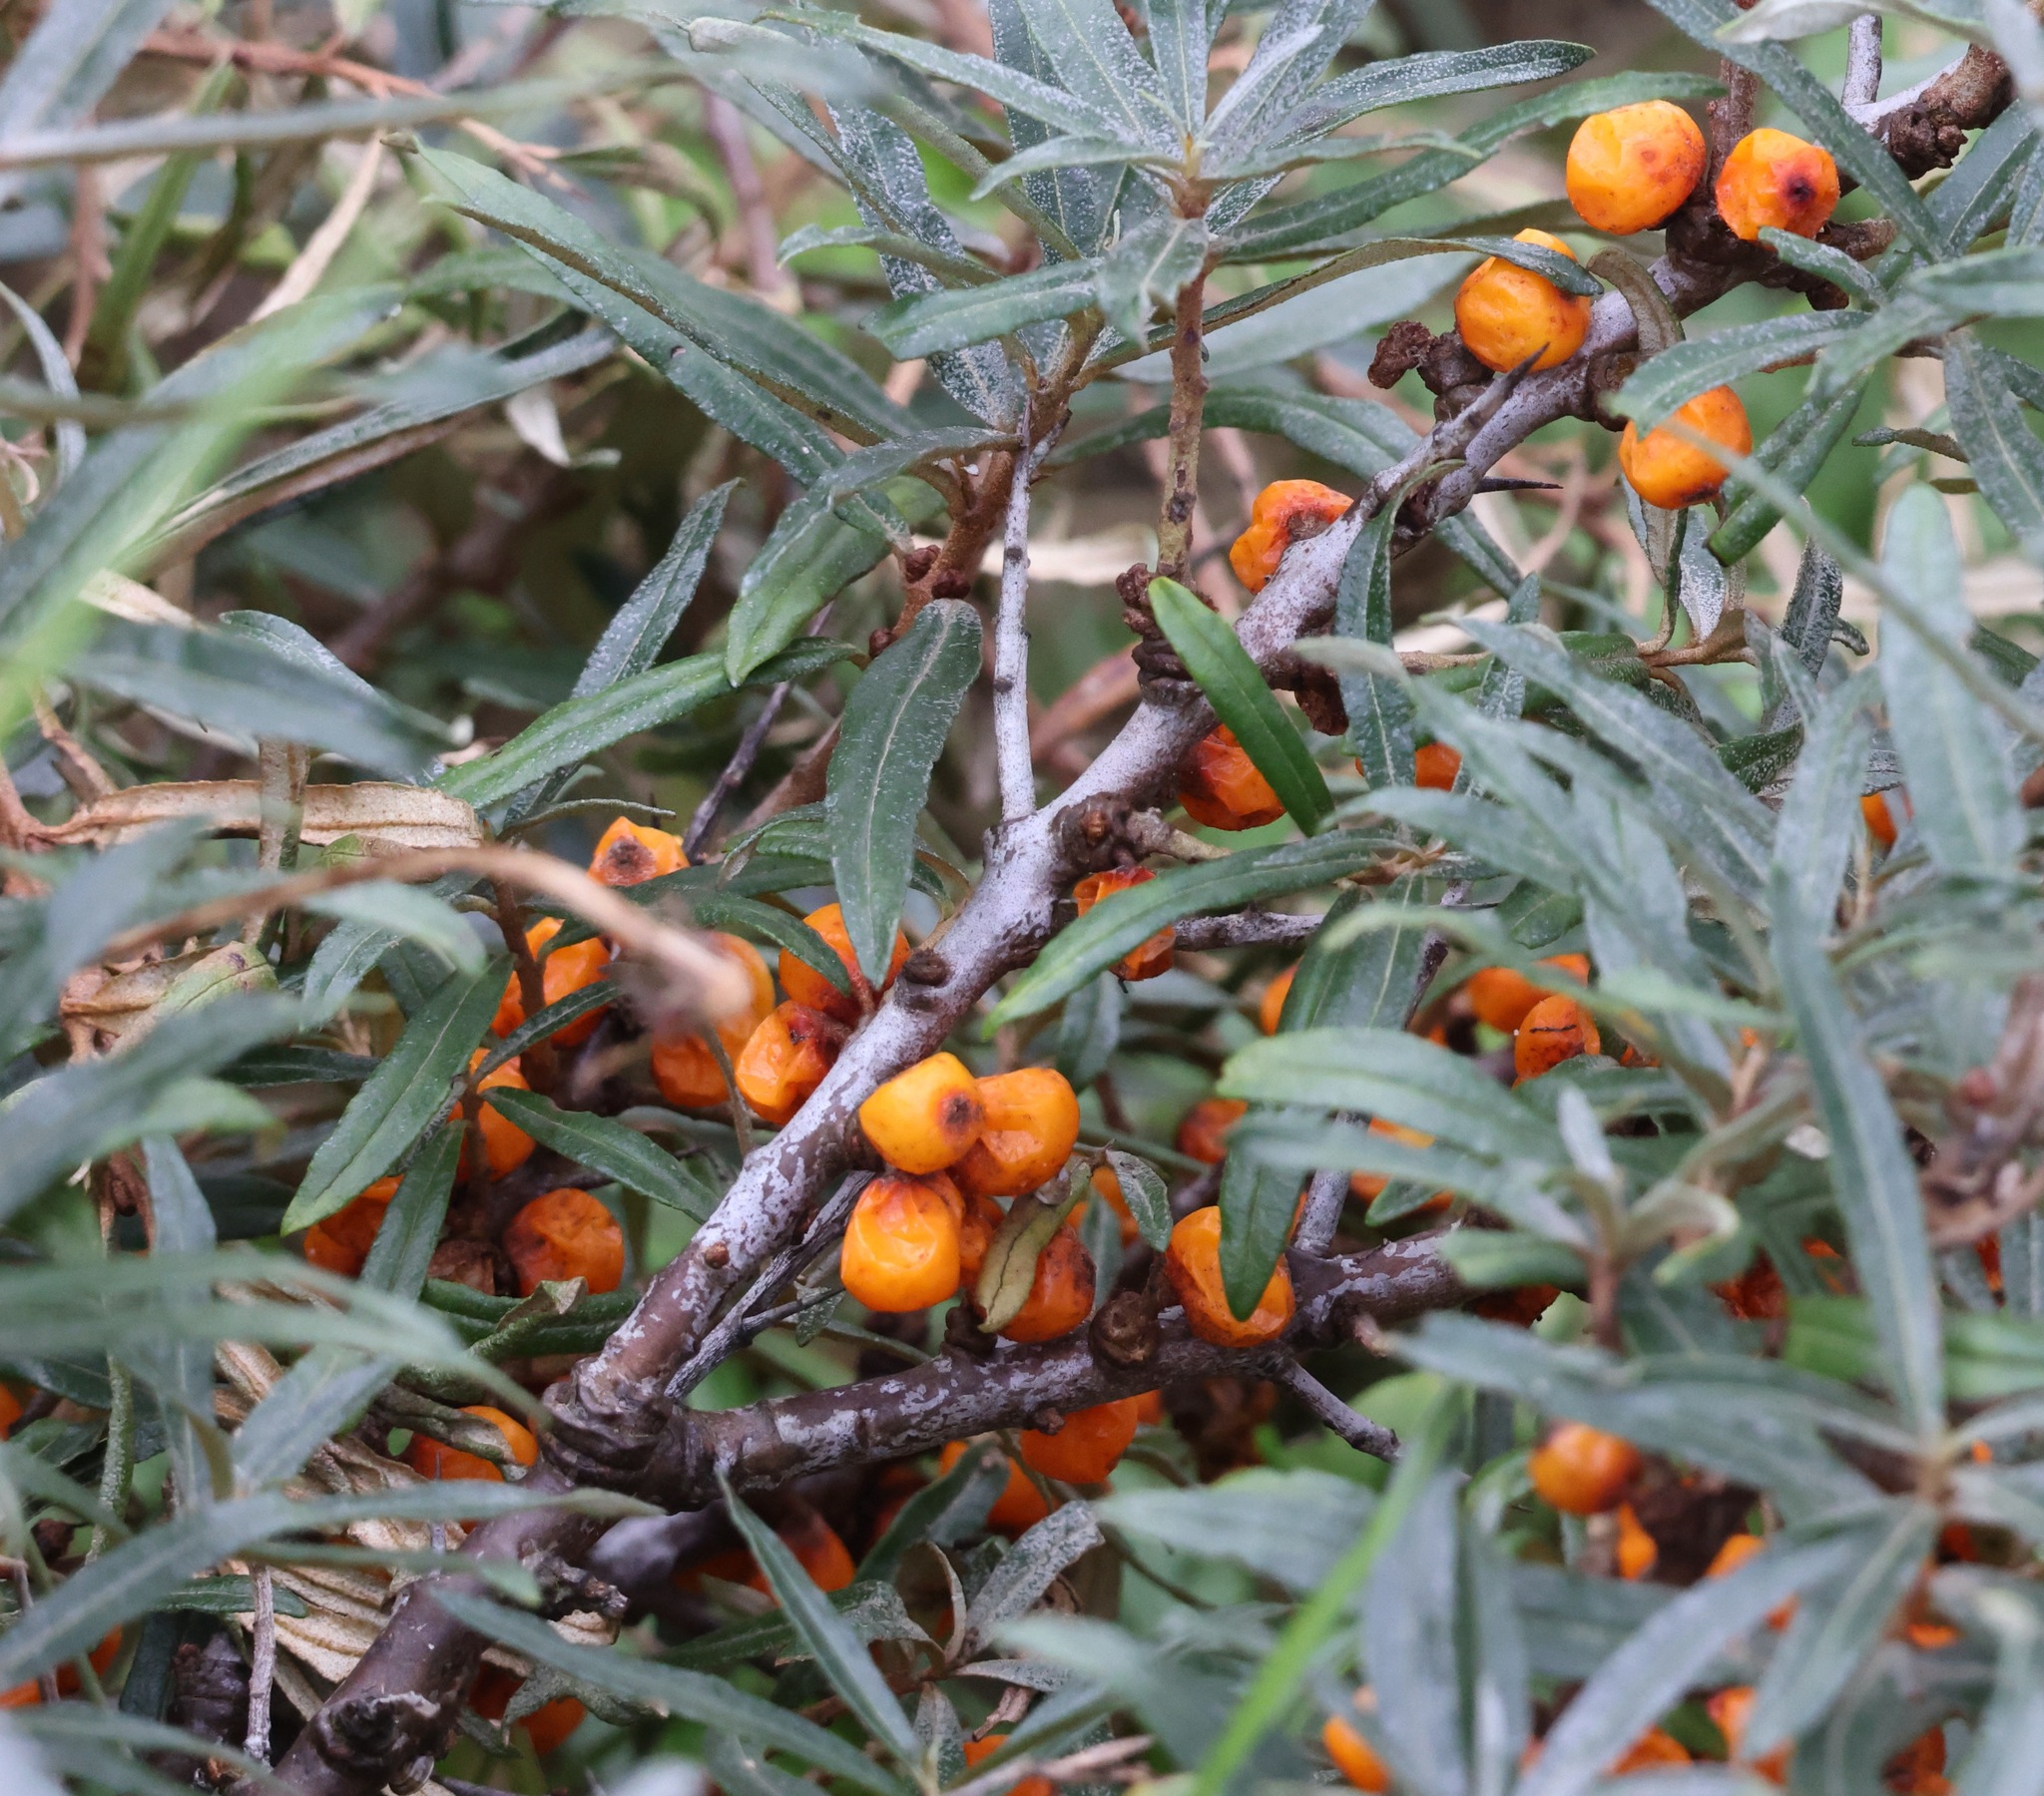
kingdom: Plantae
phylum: Tracheophyta
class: Magnoliopsida
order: Rosales
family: Elaeagnaceae
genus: Hippophae
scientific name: Hippophae rhamnoides
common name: Sea-buckthorn
